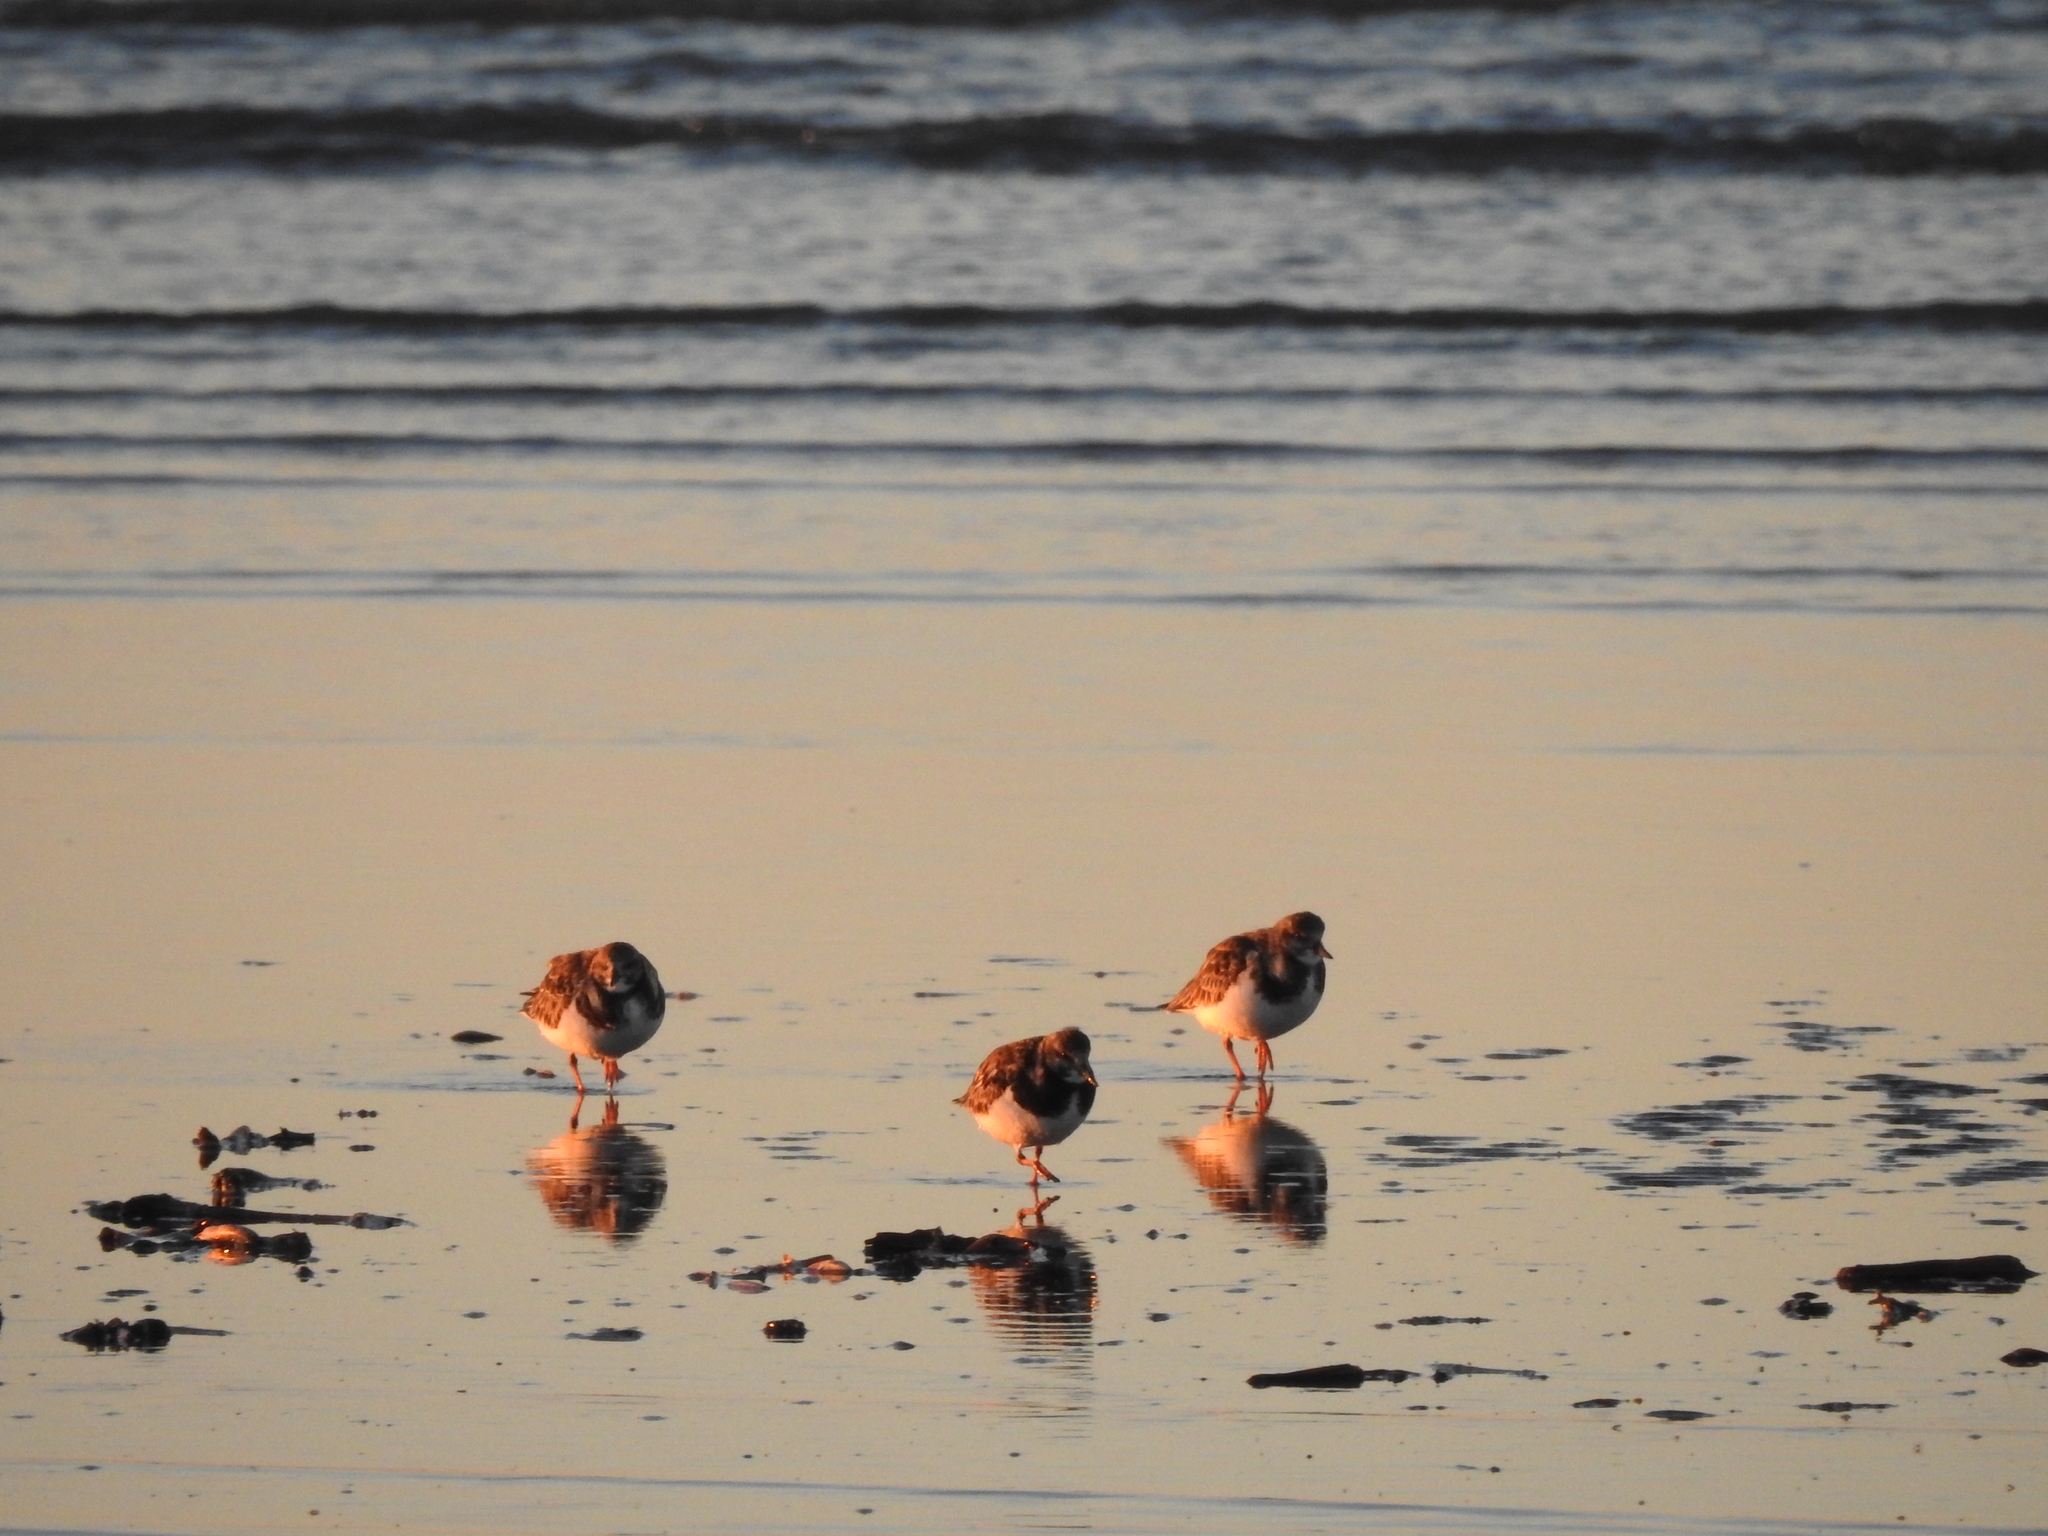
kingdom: Animalia
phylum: Chordata
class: Aves
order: Charadriiformes
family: Scolopacidae
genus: Arenaria
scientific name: Arenaria interpres
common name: Ruddy turnstone
